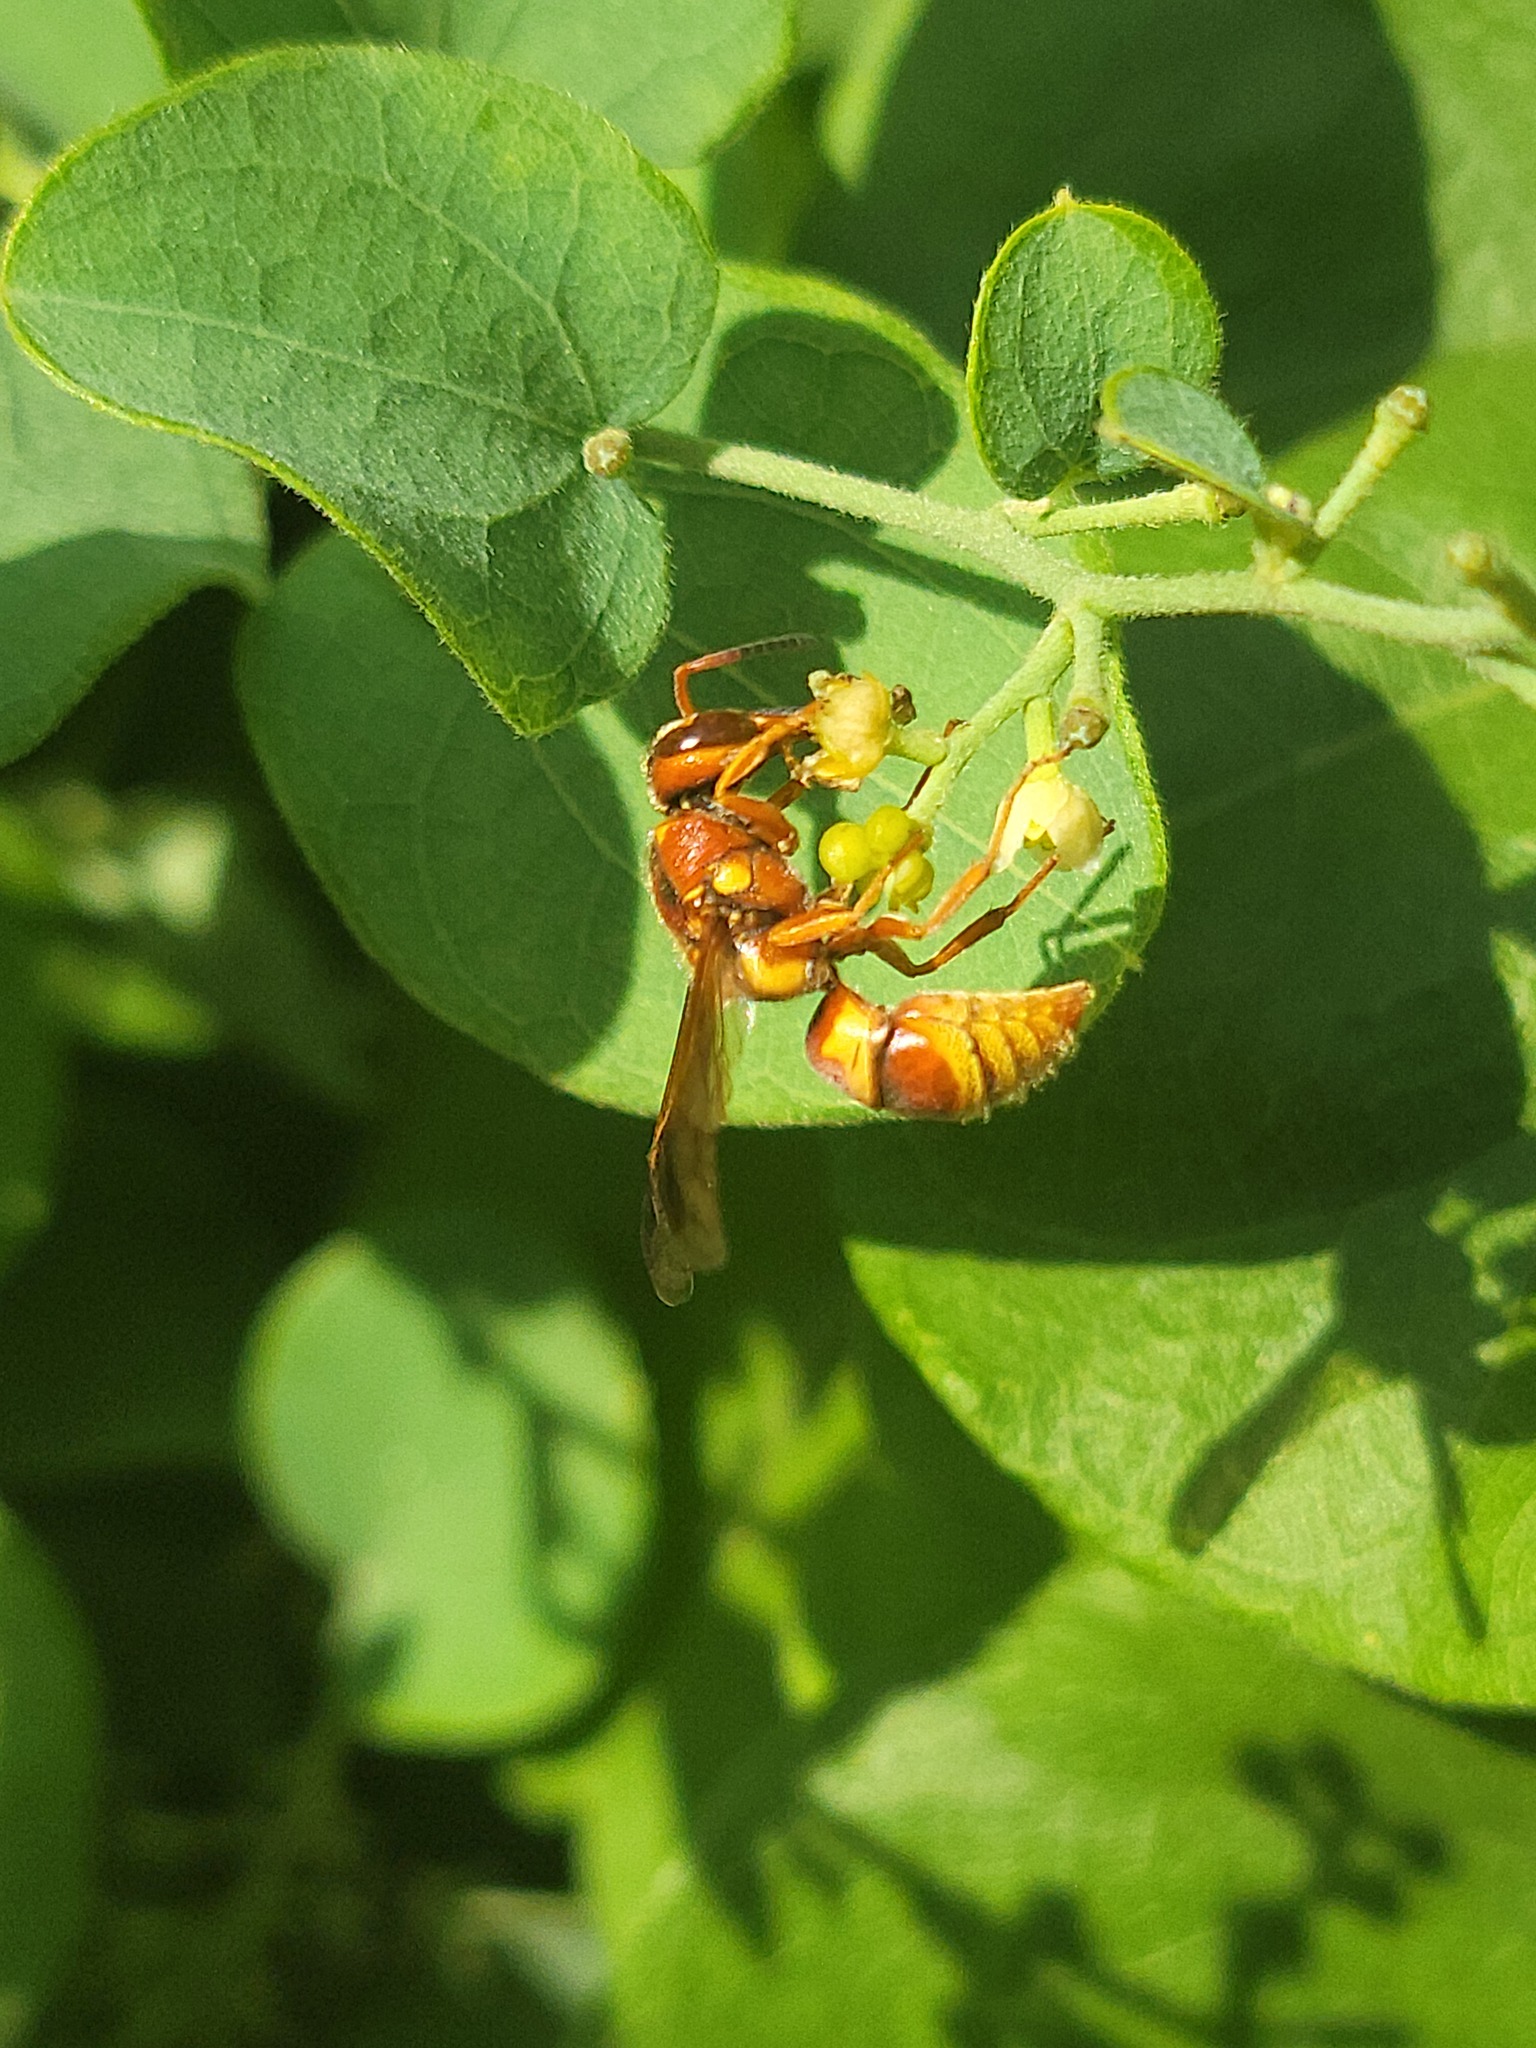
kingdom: Animalia
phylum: Arthropoda
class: Insecta
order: Hymenoptera
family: Eumenidae
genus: Euodynerus
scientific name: Euodynerus pratensis
